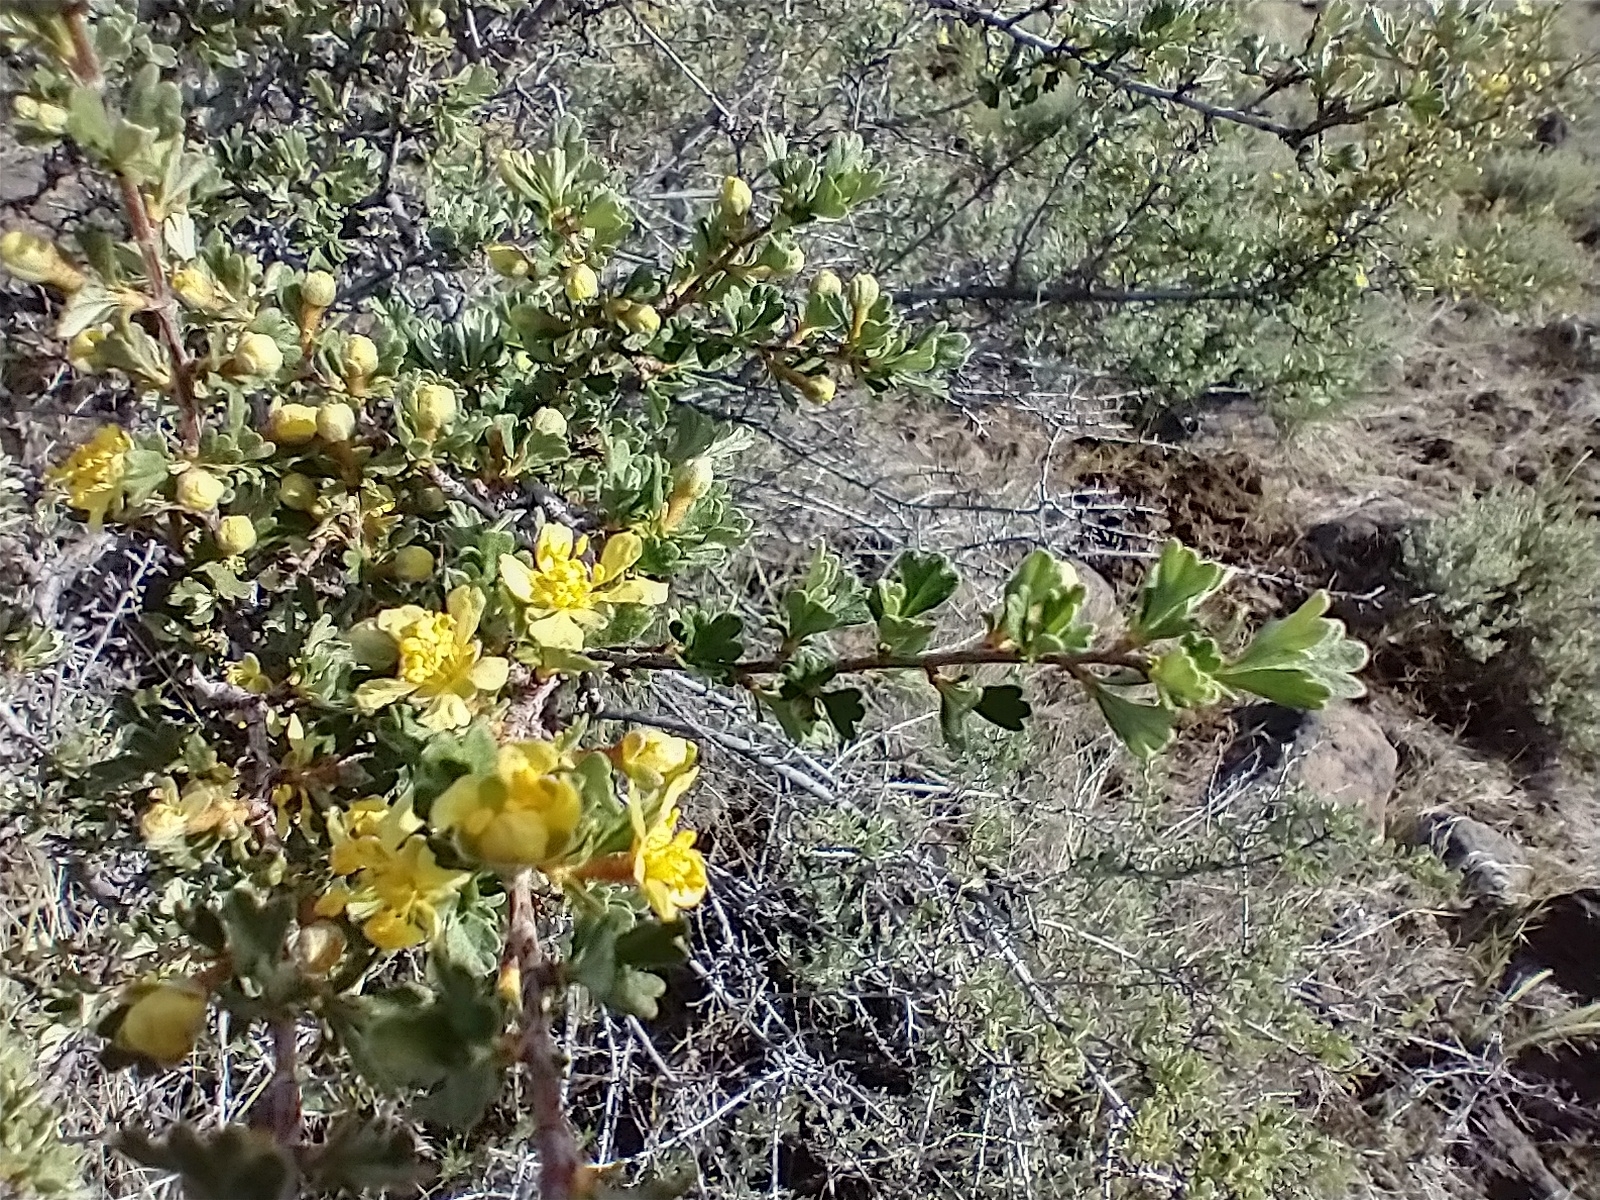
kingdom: Plantae
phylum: Tracheophyta
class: Magnoliopsida
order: Rosales
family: Rosaceae
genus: Purshia
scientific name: Purshia tridentata
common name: Antelope bitterbrush
